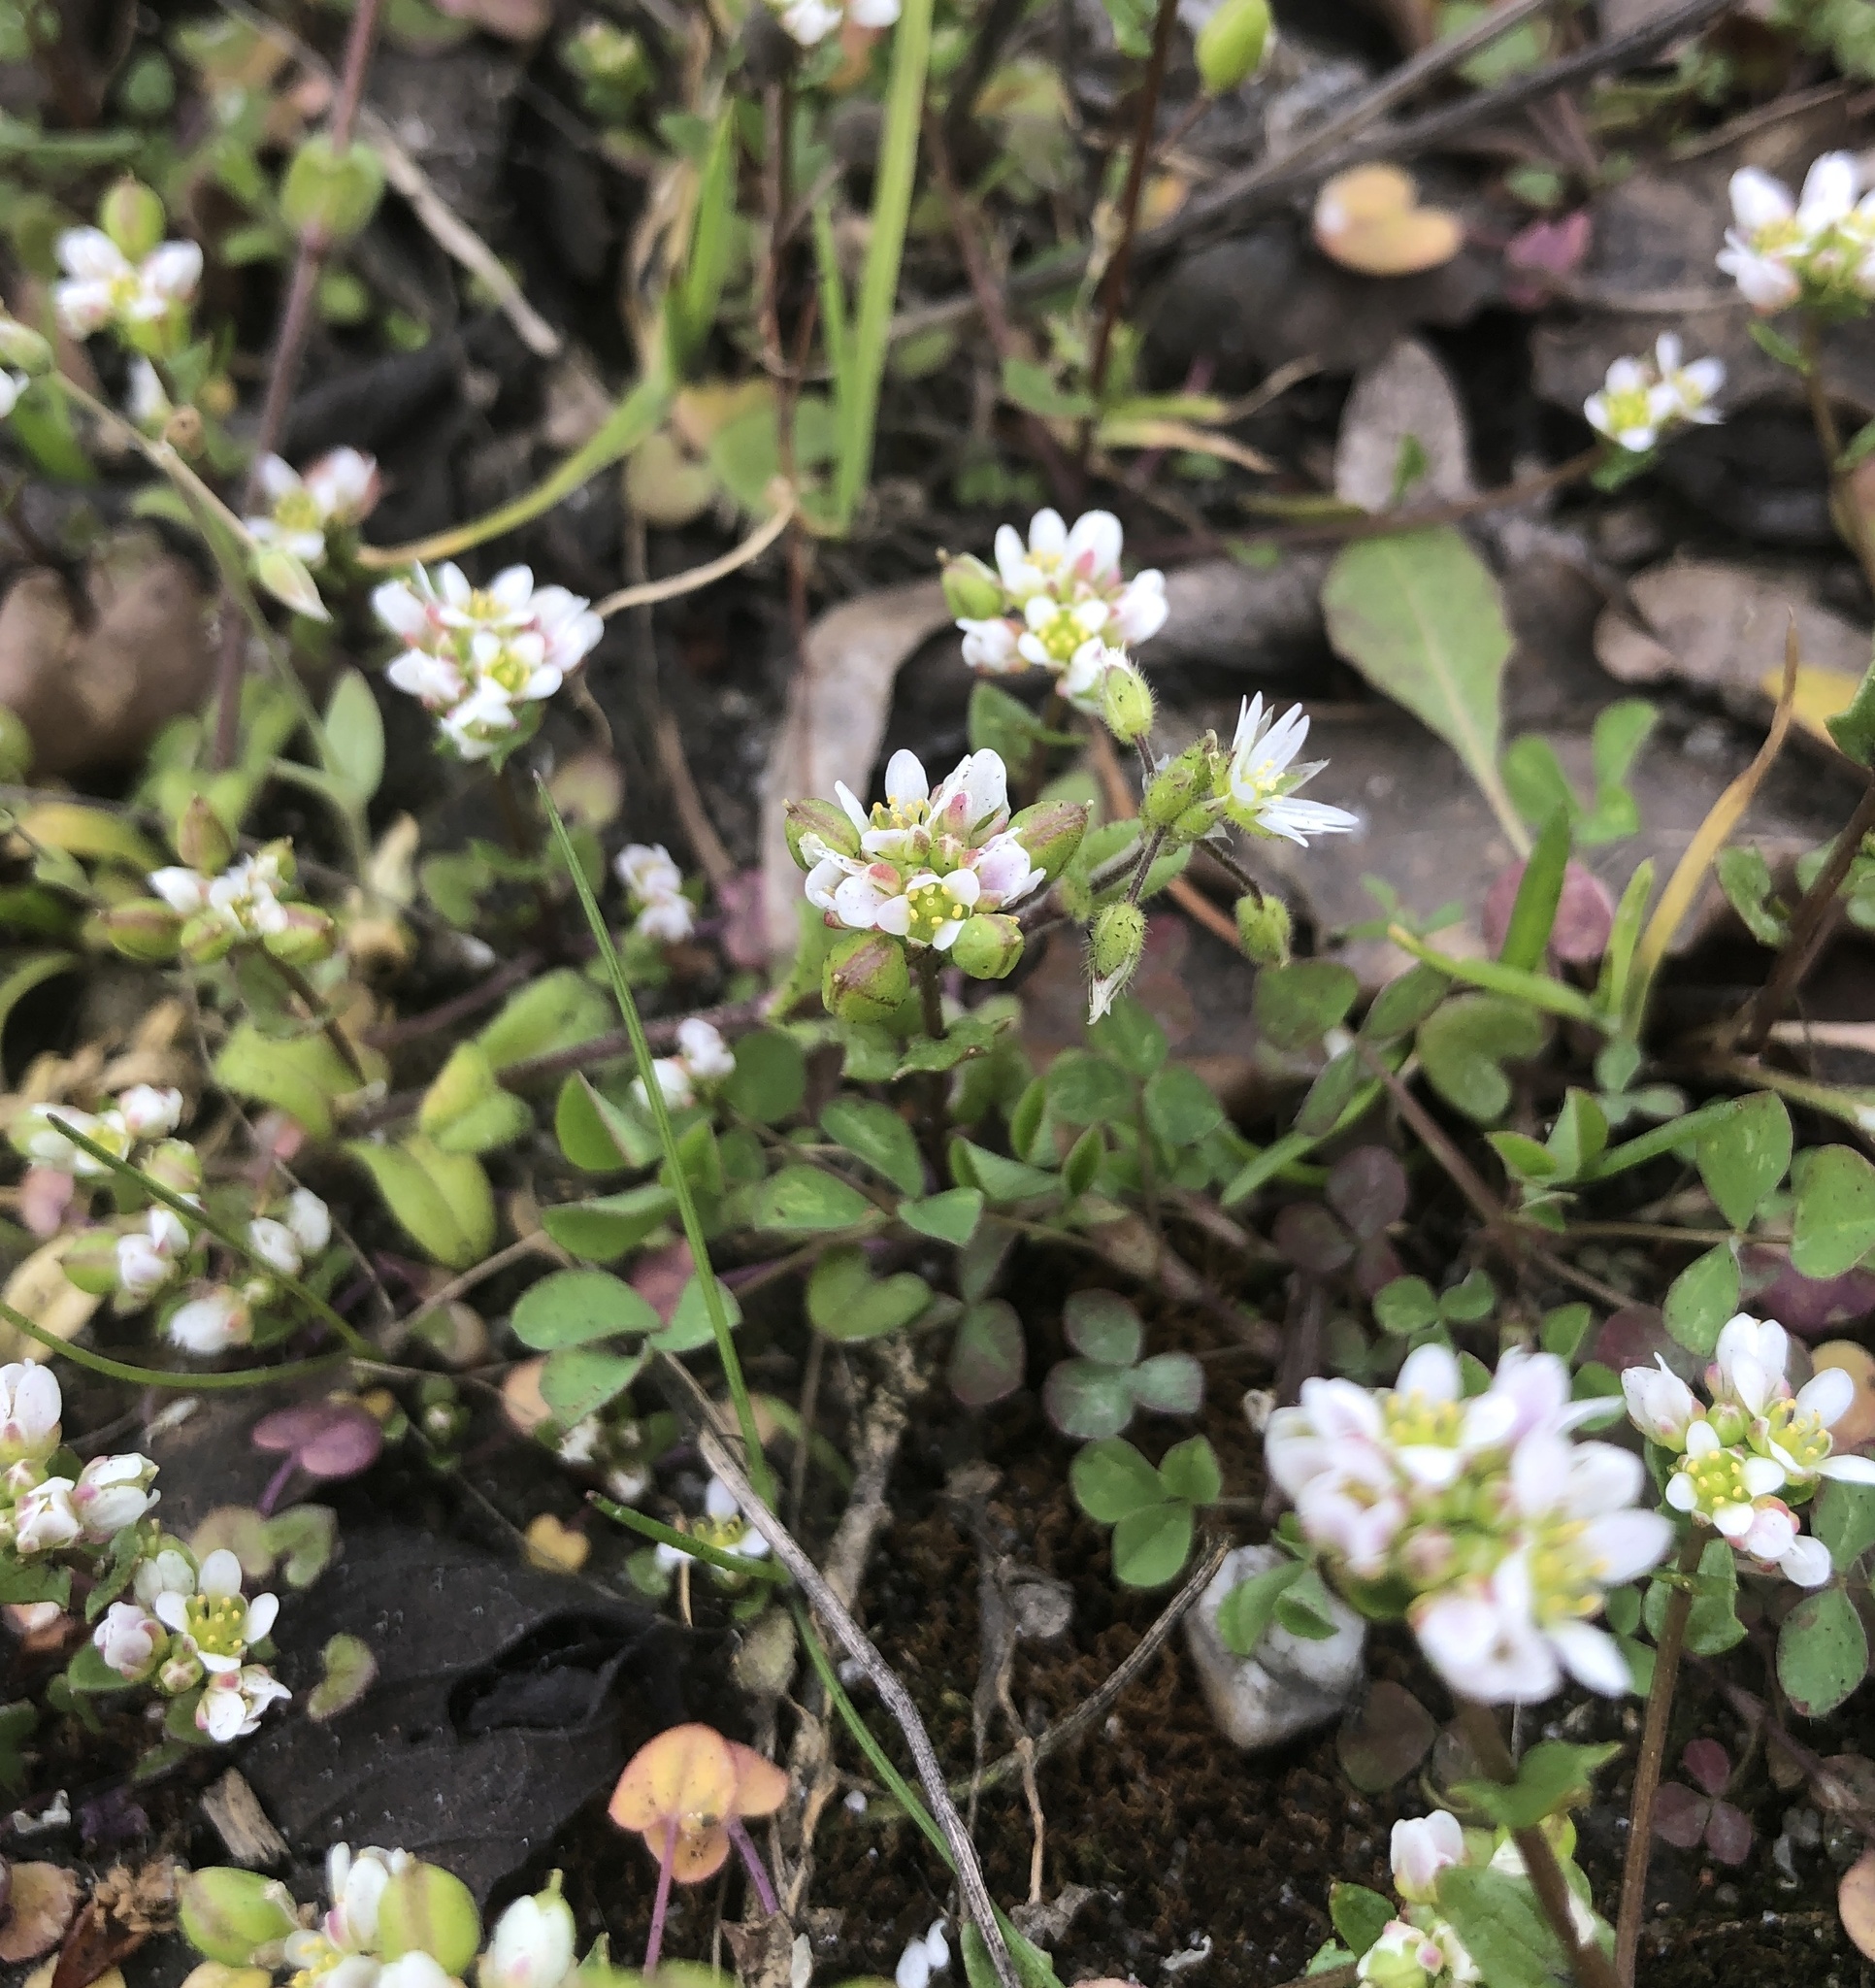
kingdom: Plantae
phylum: Tracheophyta
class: Magnoliopsida
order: Brassicales
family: Brassicaceae
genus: Cochlearia
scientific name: Cochlearia danica
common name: Early scurvygrass
